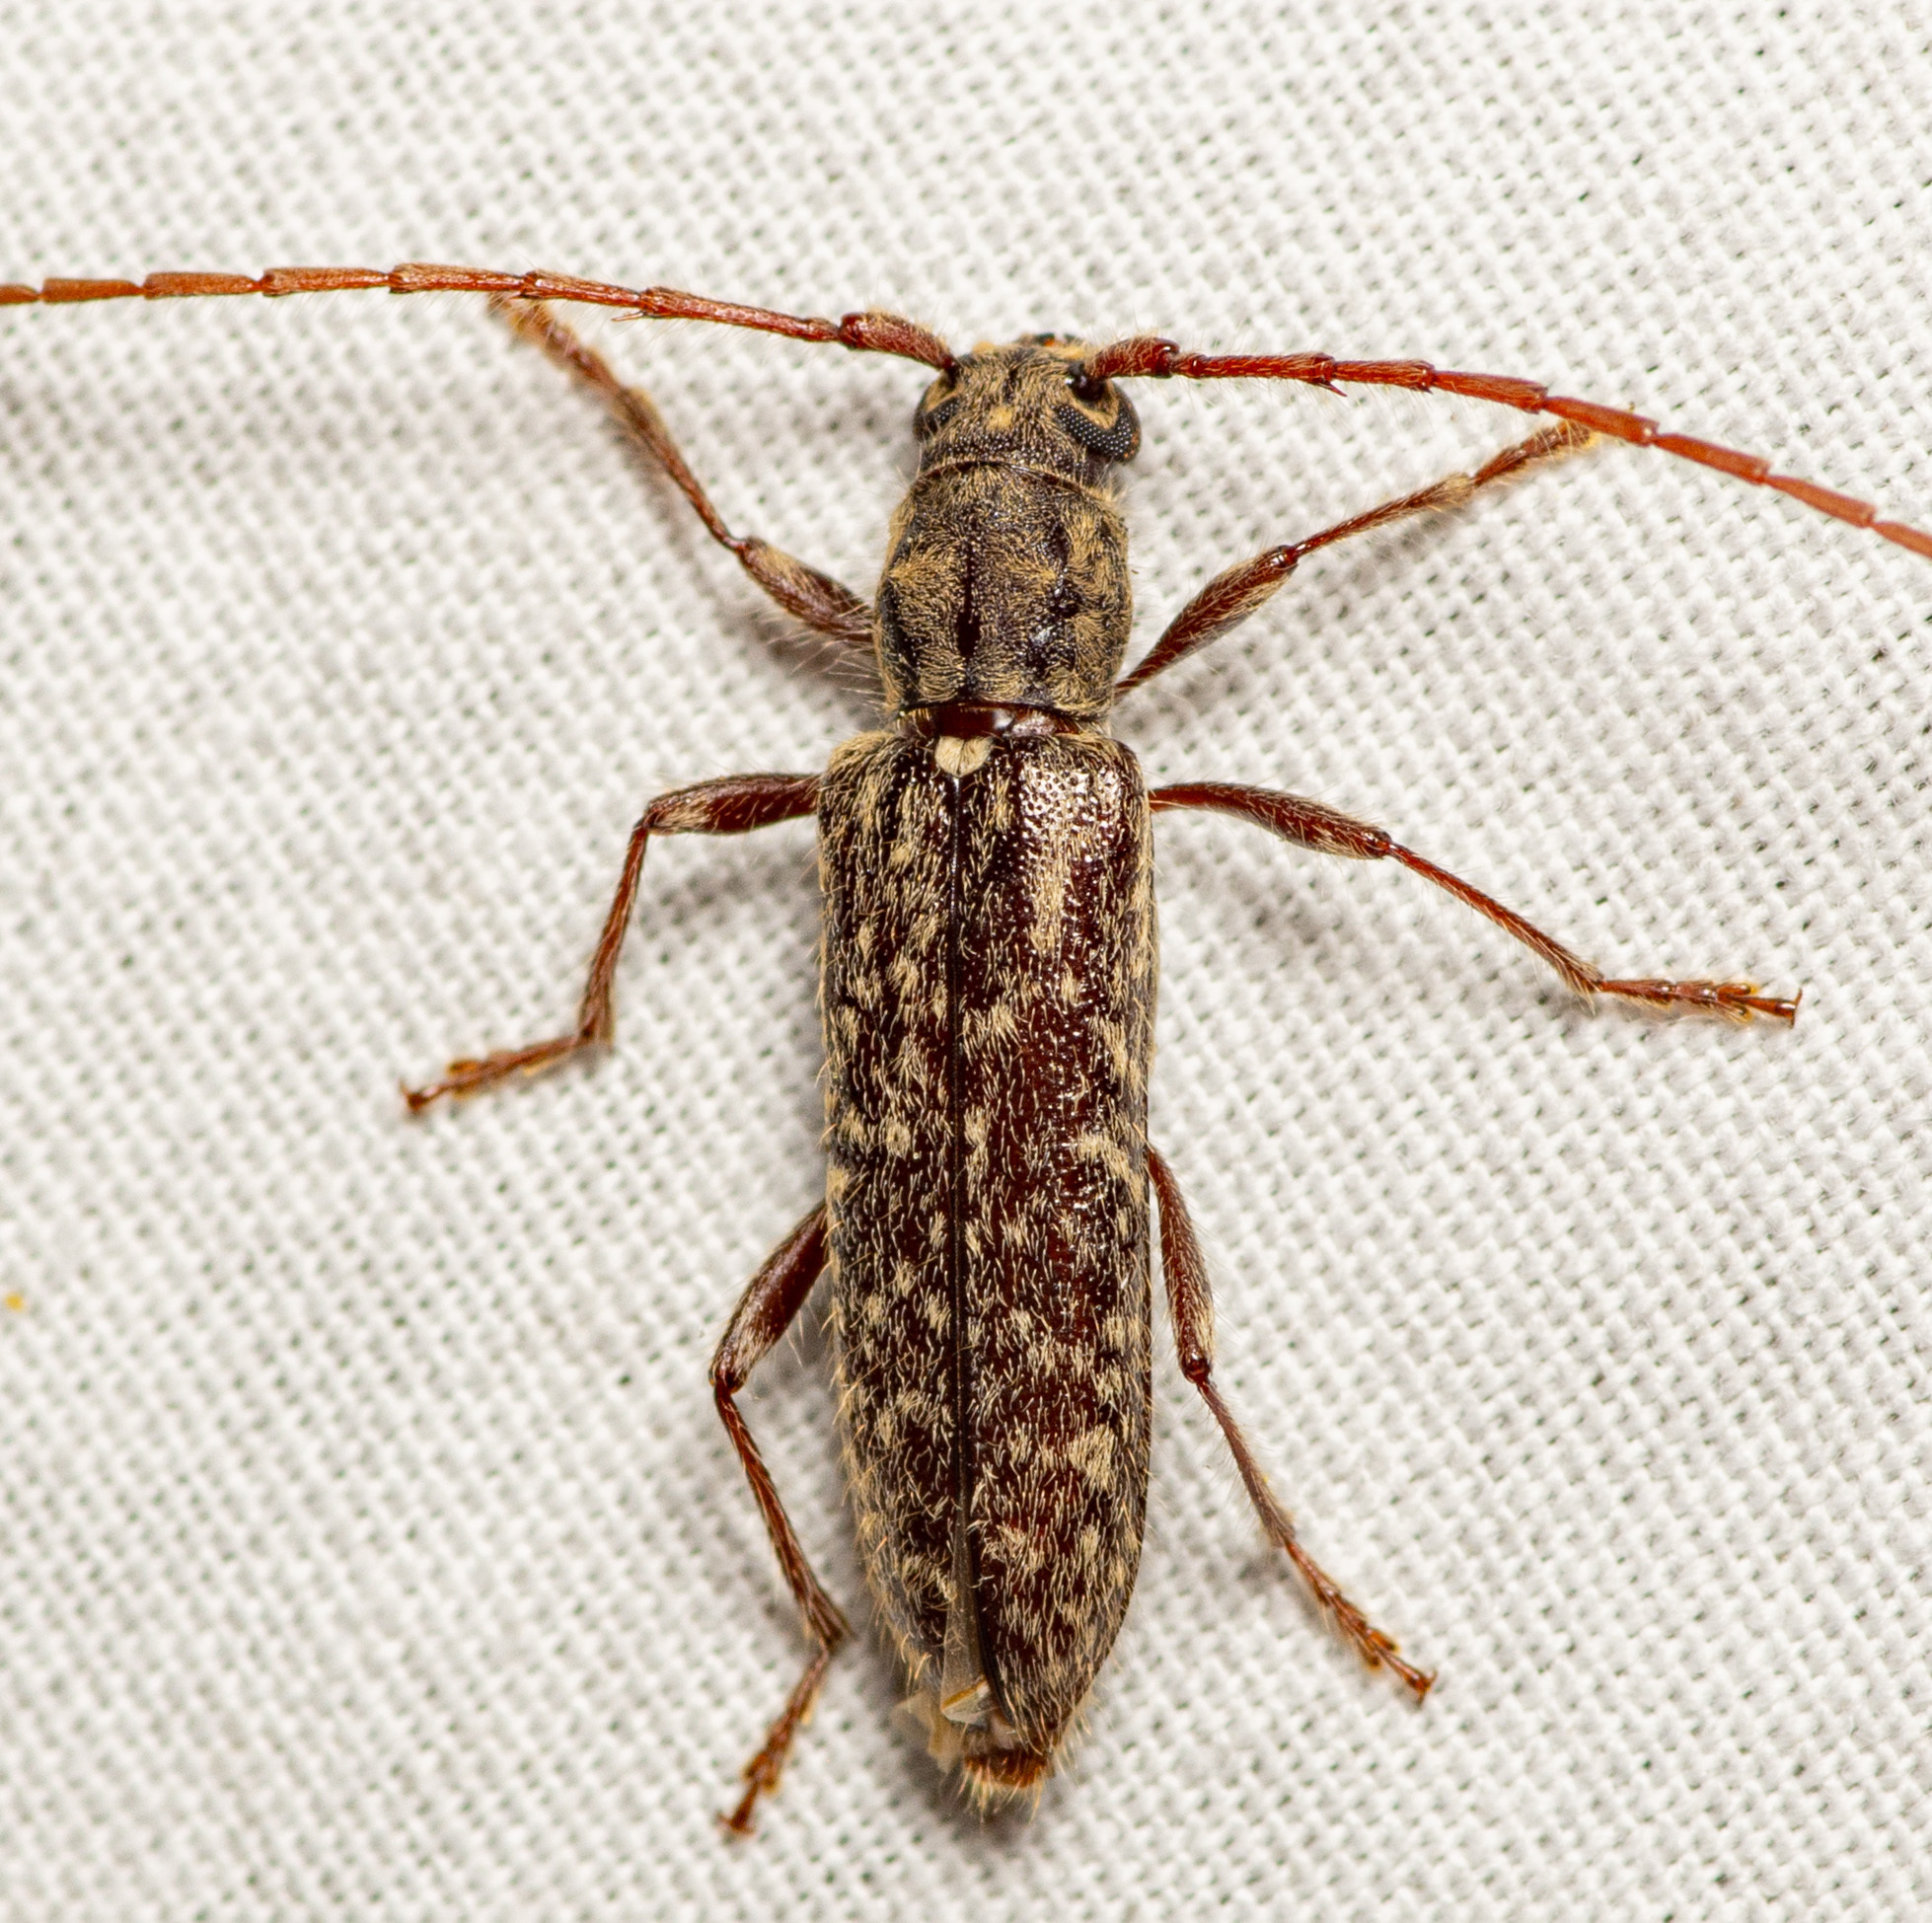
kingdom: Animalia
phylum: Arthropoda
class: Insecta
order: Coleoptera
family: Cerambycidae
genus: Anelaphus
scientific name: Anelaphus pumilus
